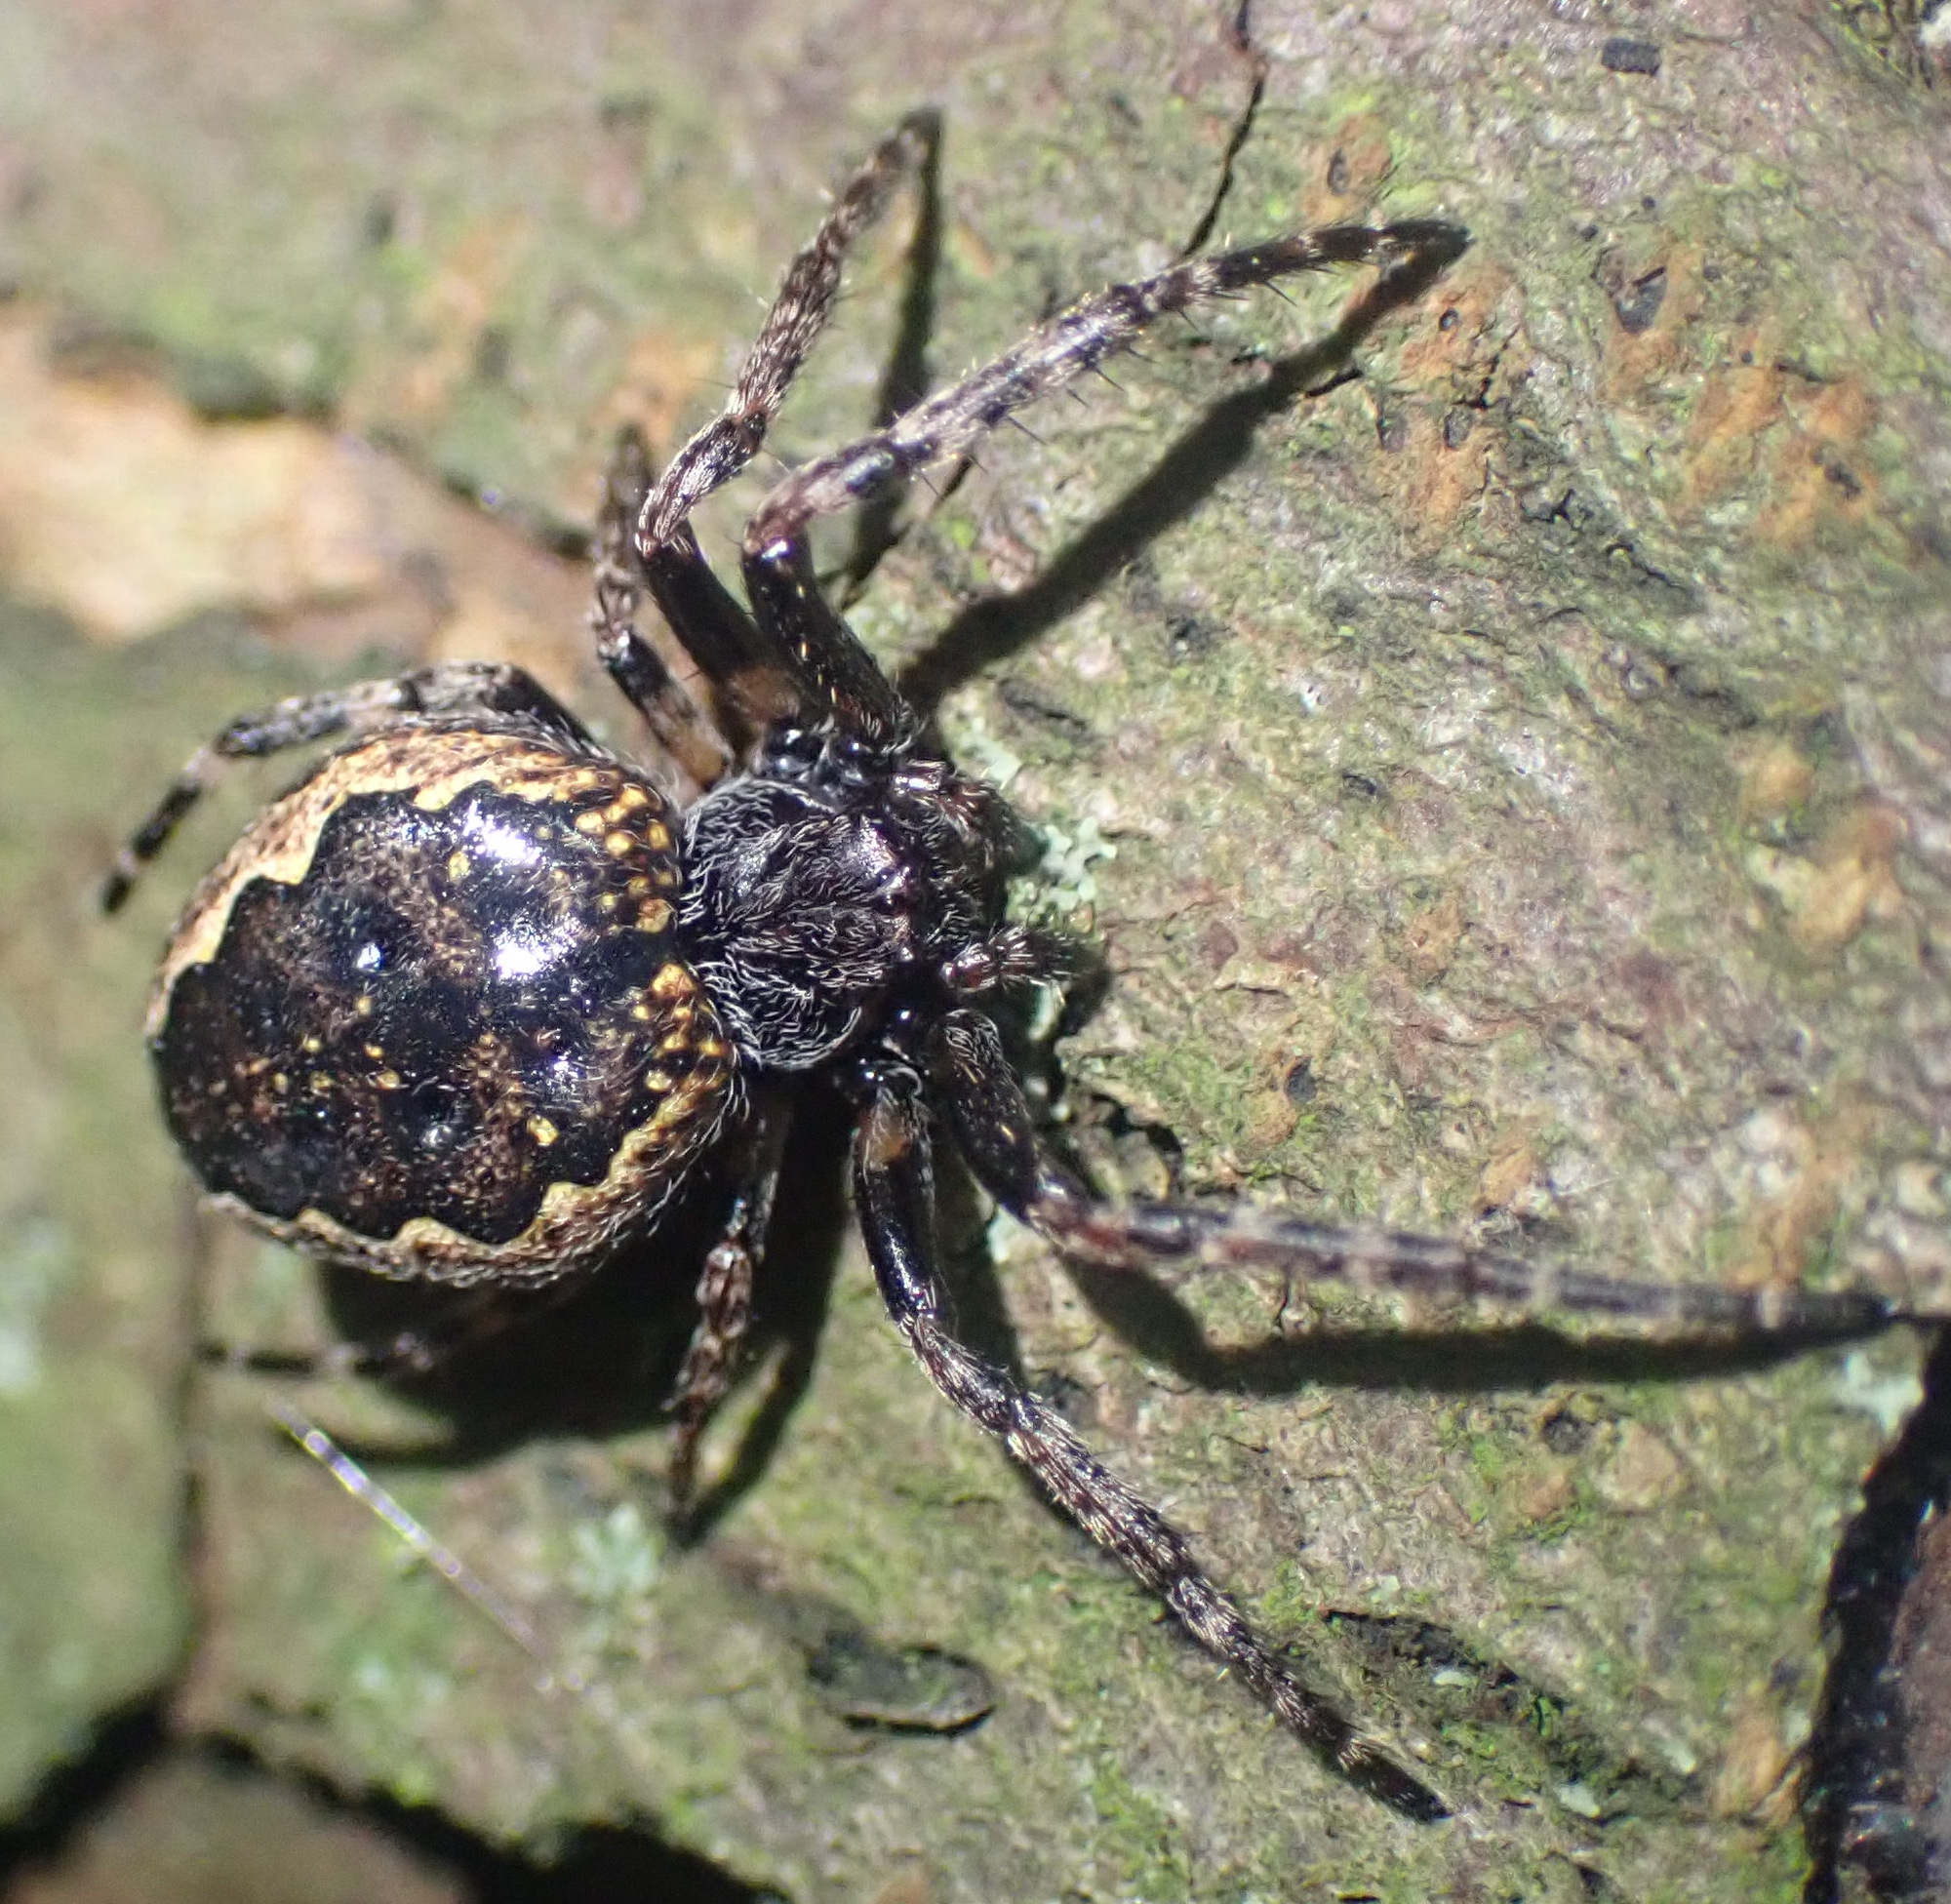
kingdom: Animalia
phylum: Arthropoda
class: Arachnida
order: Araneae
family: Araneidae
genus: Nuctenea
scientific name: Nuctenea umbratica
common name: Toad spider
